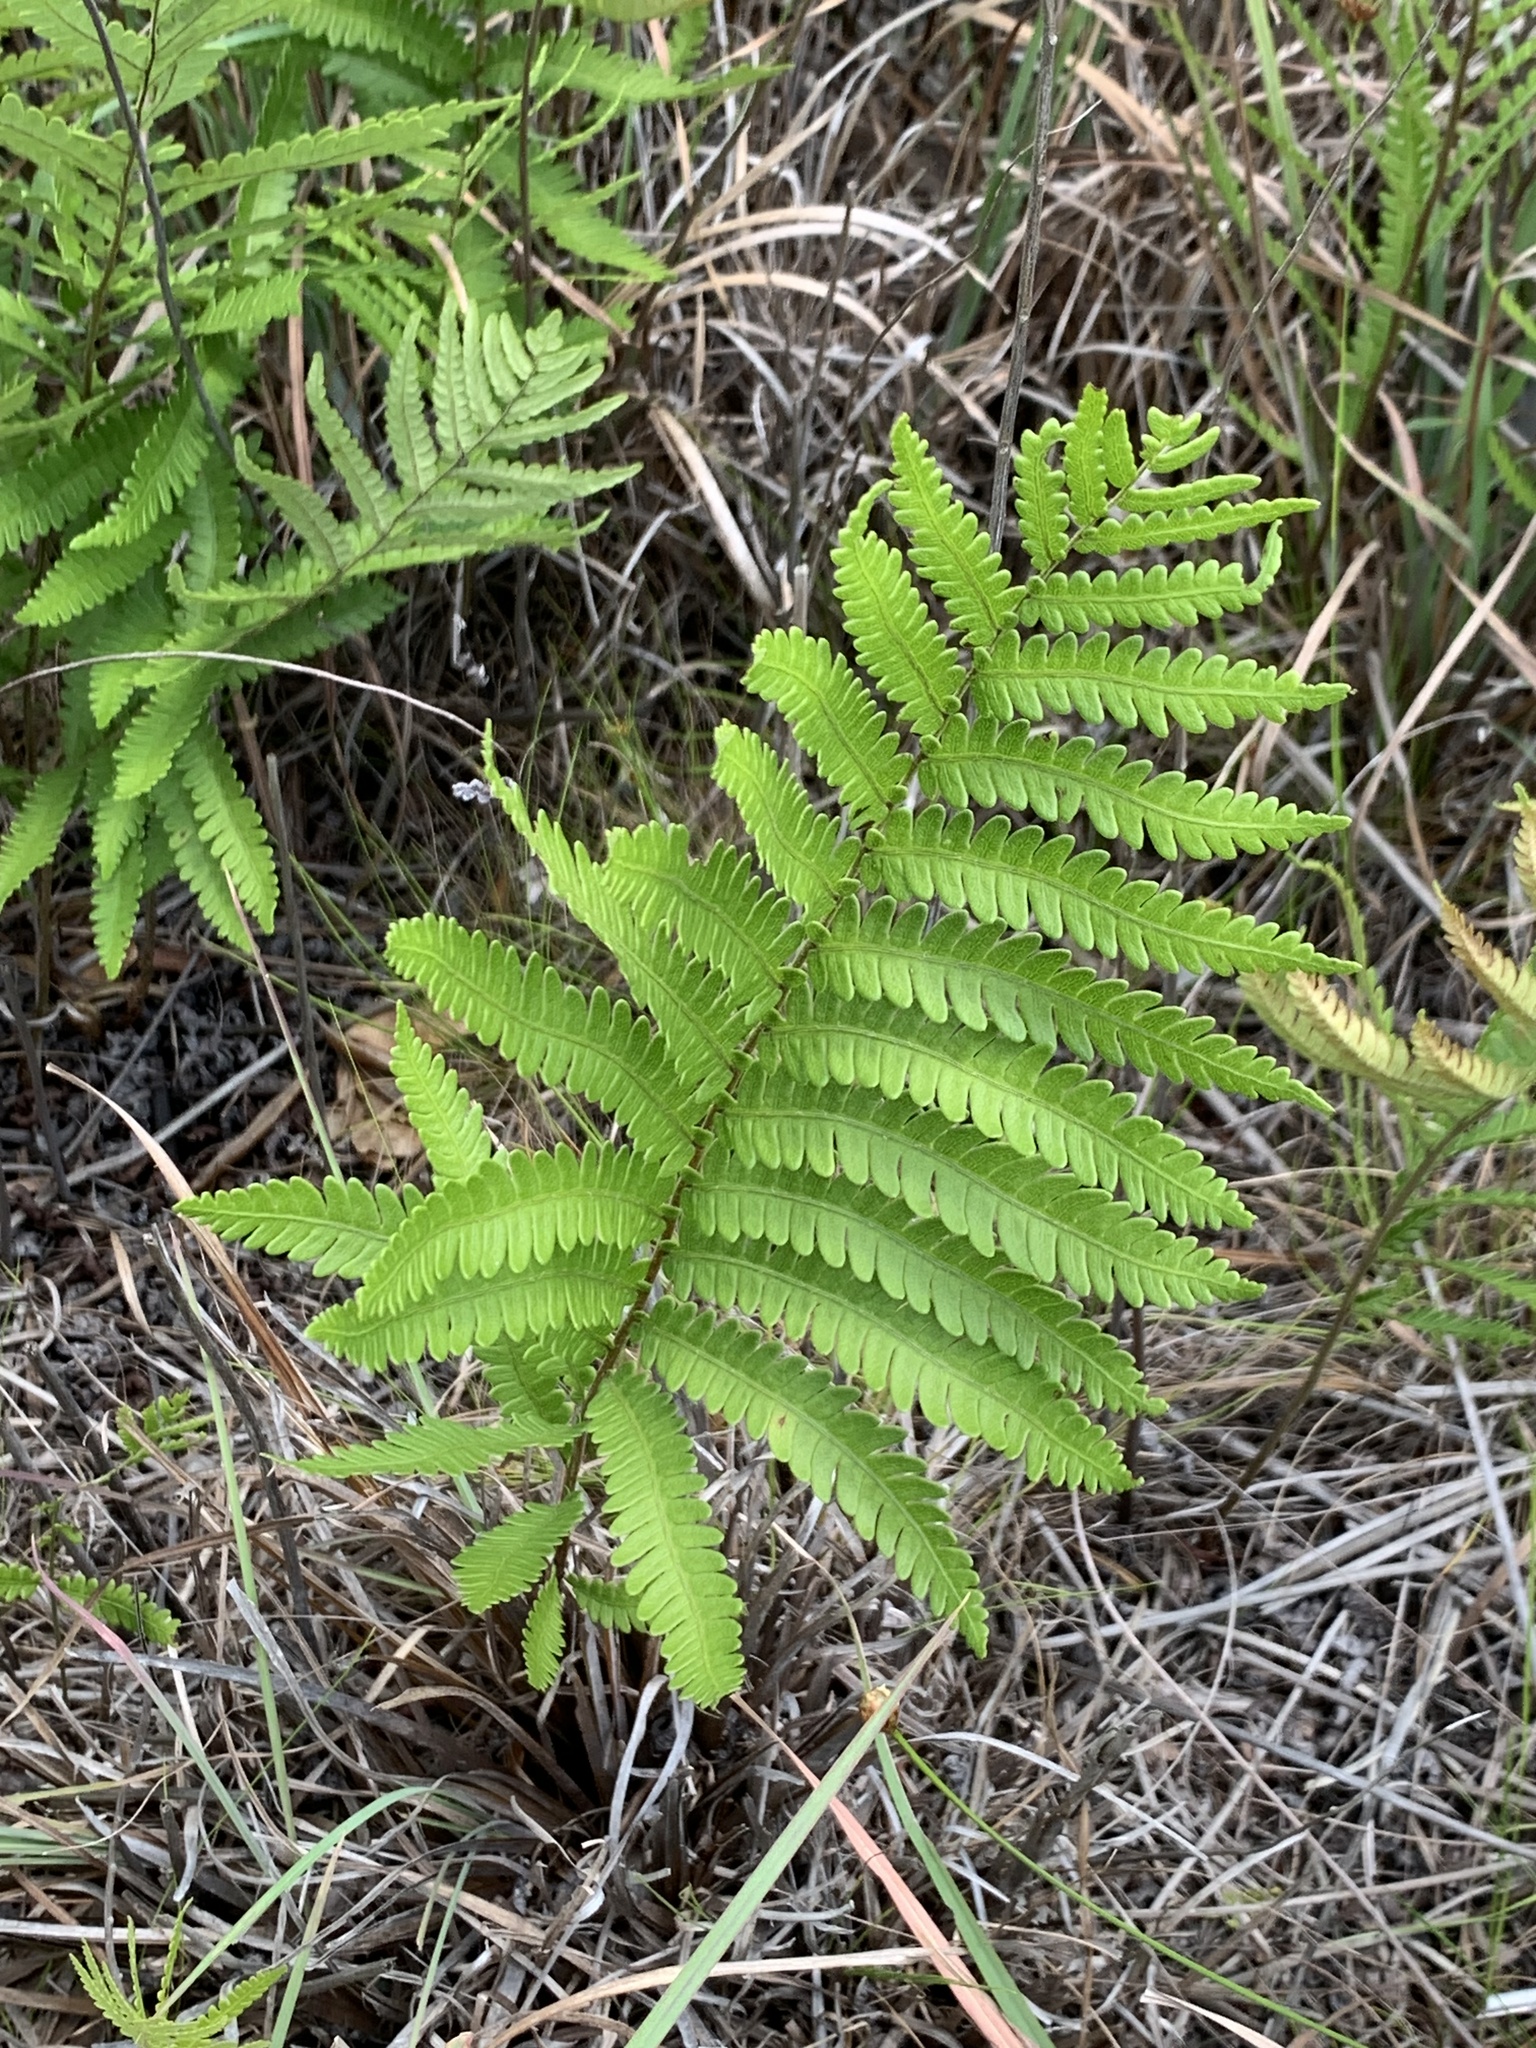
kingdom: Plantae
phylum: Tracheophyta
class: Polypodiopsida
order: Polypodiales
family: Blechnaceae
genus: Anchistea
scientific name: Anchistea virginica
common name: Virginia chain fern
